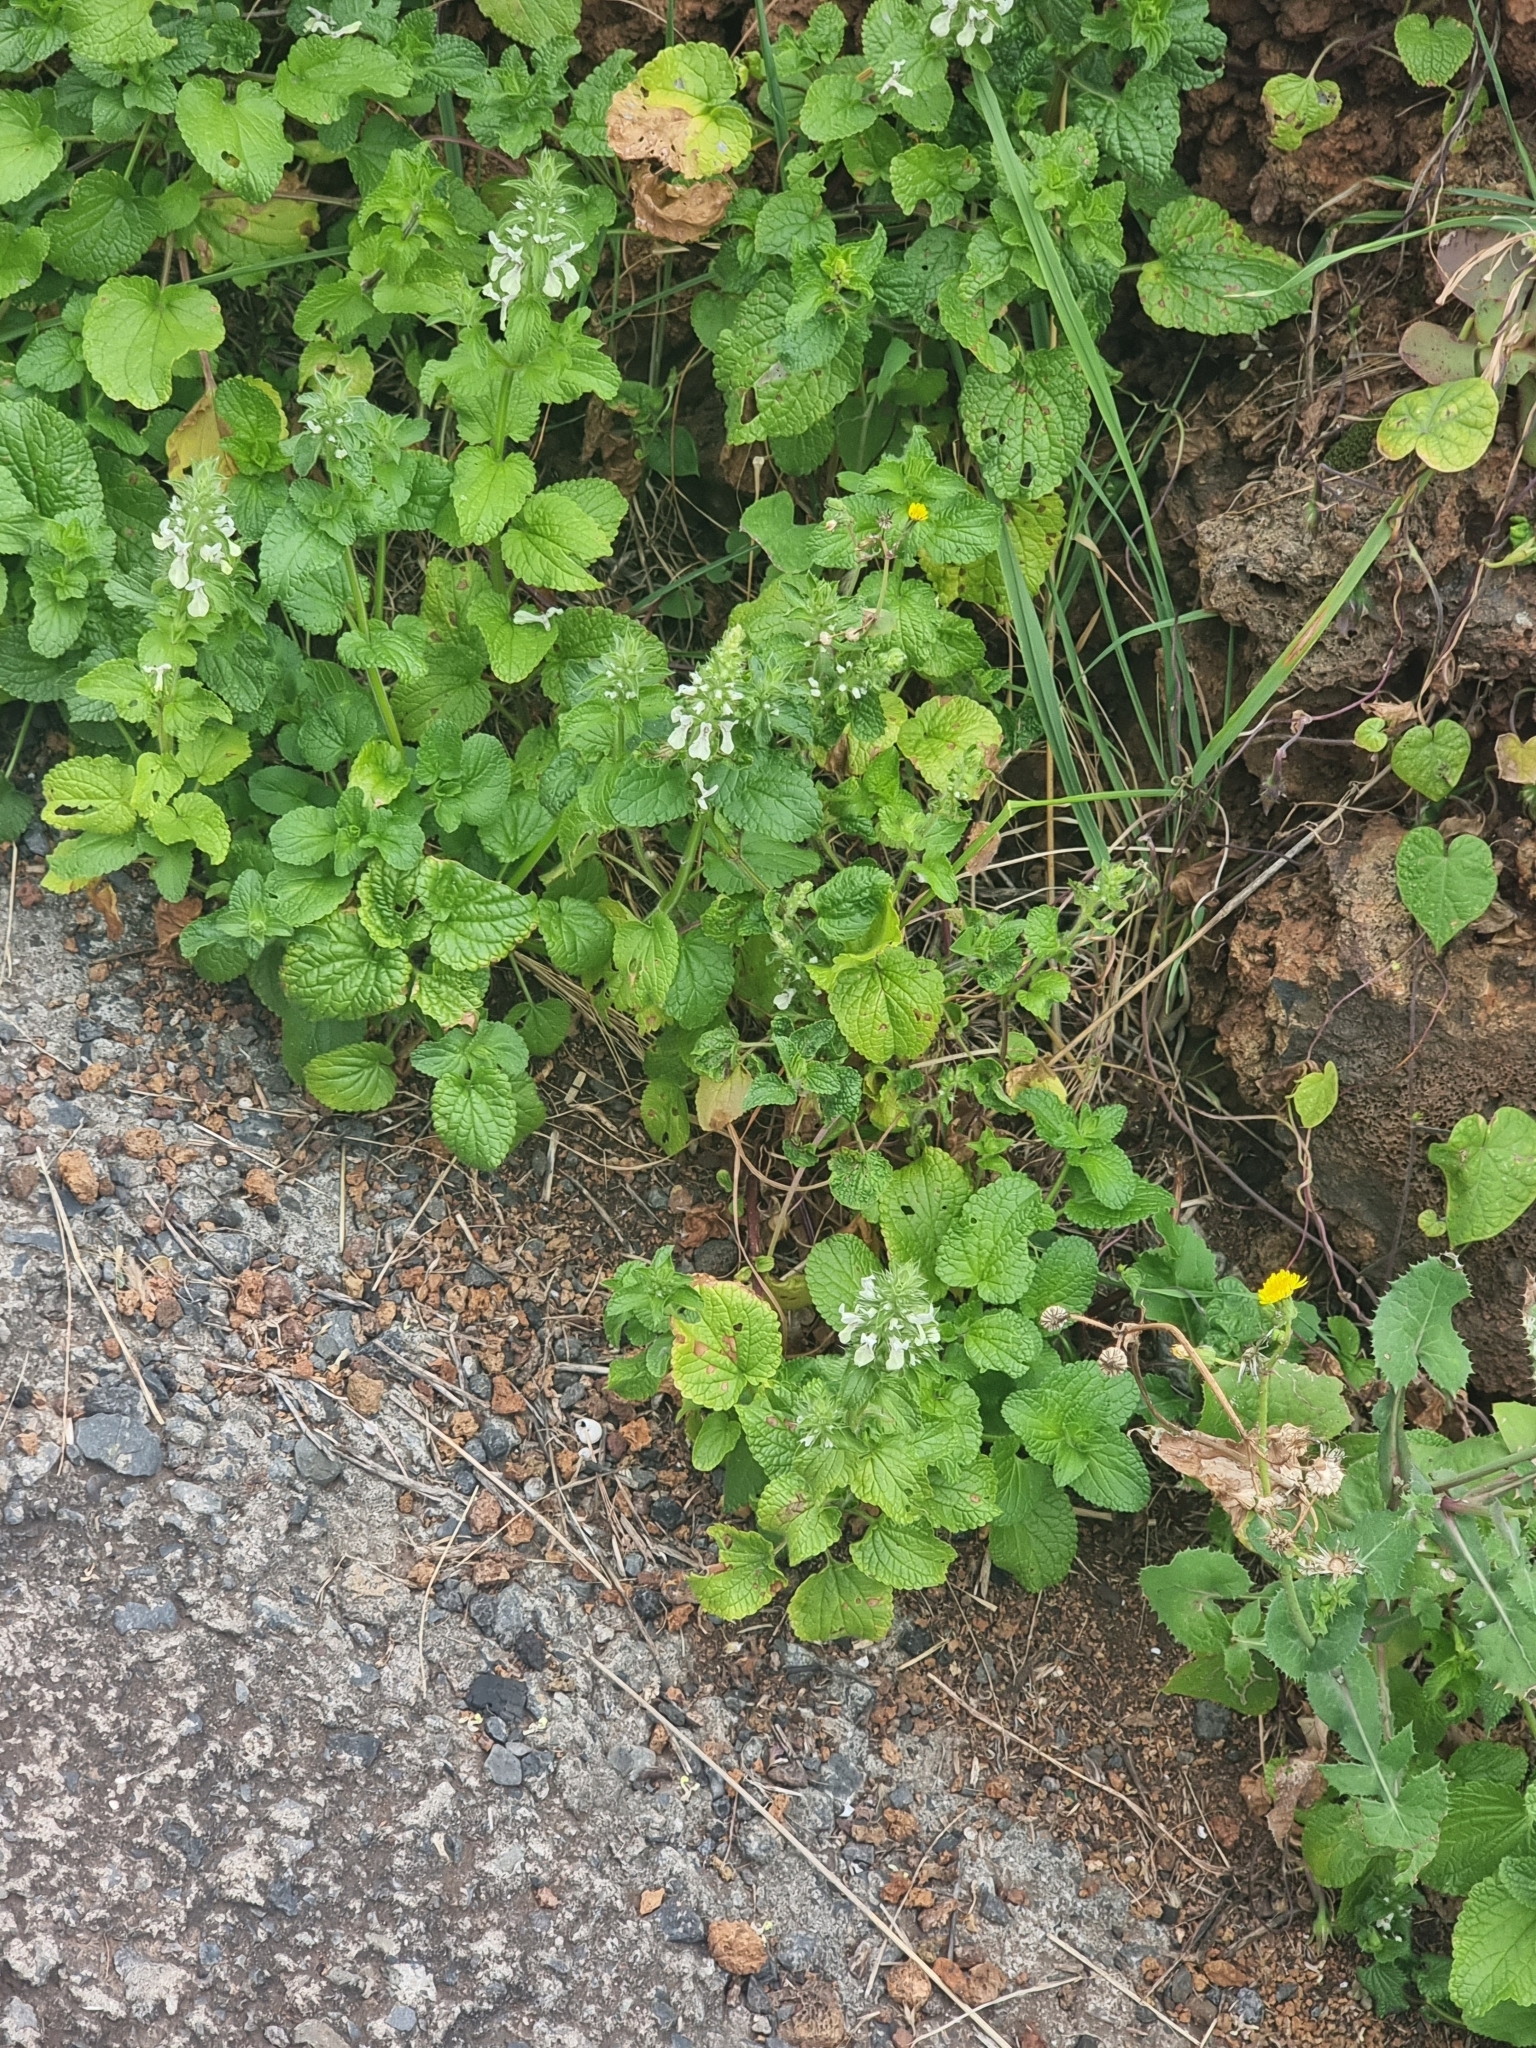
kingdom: Plantae
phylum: Tracheophyta
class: Magnoliopsida
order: Lamiales
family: Lamiaceae
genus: Stachys
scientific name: Stachys ocymastrum
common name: Italian hedgenettle
